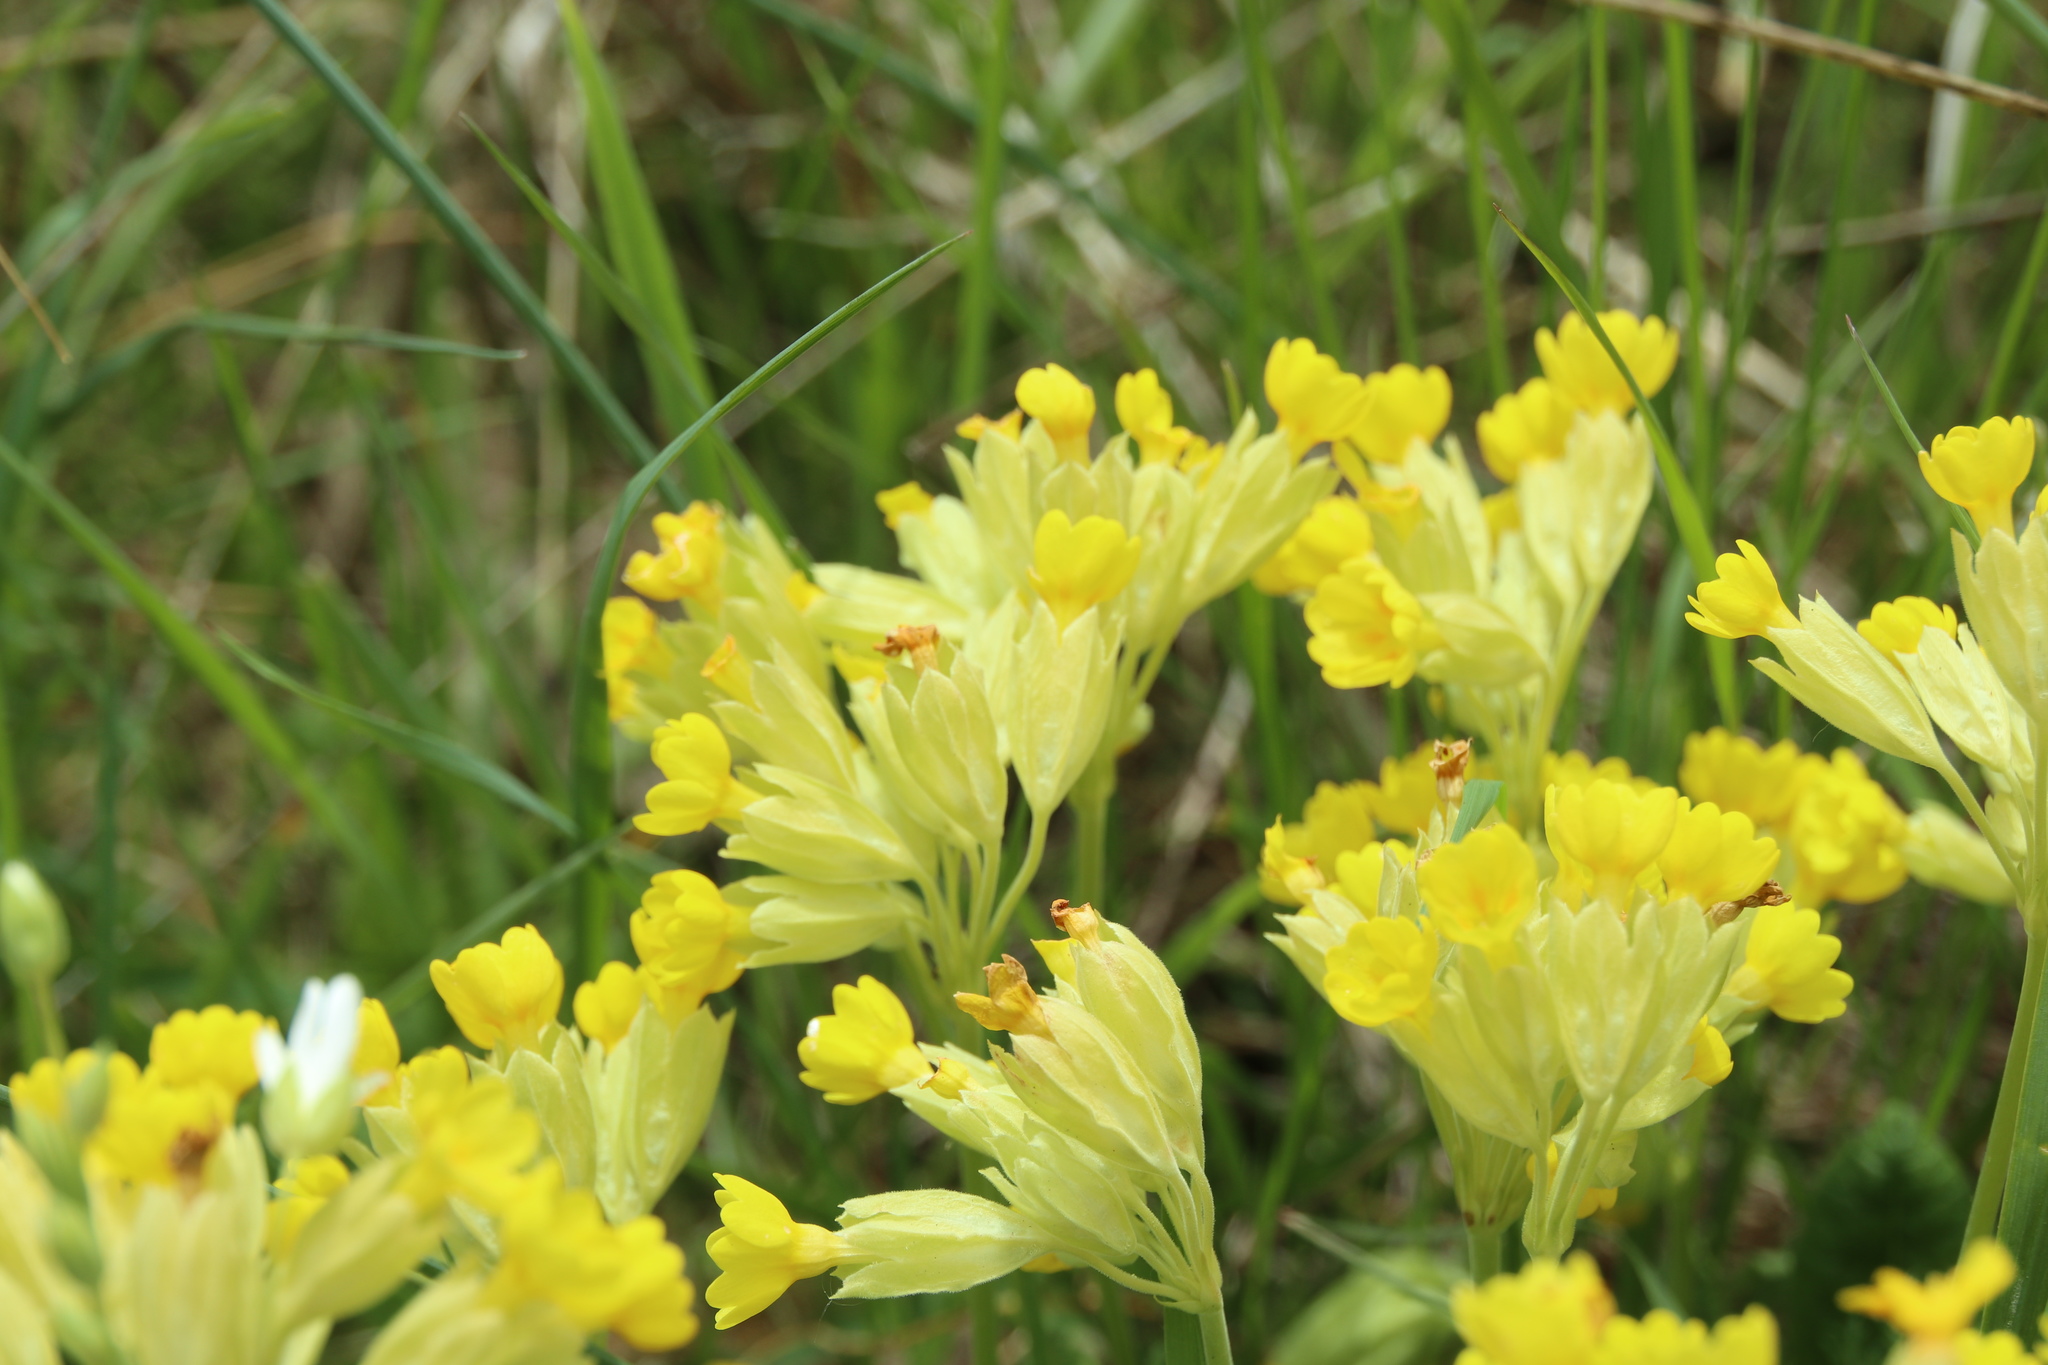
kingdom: Plantae
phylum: Tracheophyta
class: Magnoliopsida
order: Ericales
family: Primulaceae
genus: Primula
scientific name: Primula veris
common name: Cowslip
